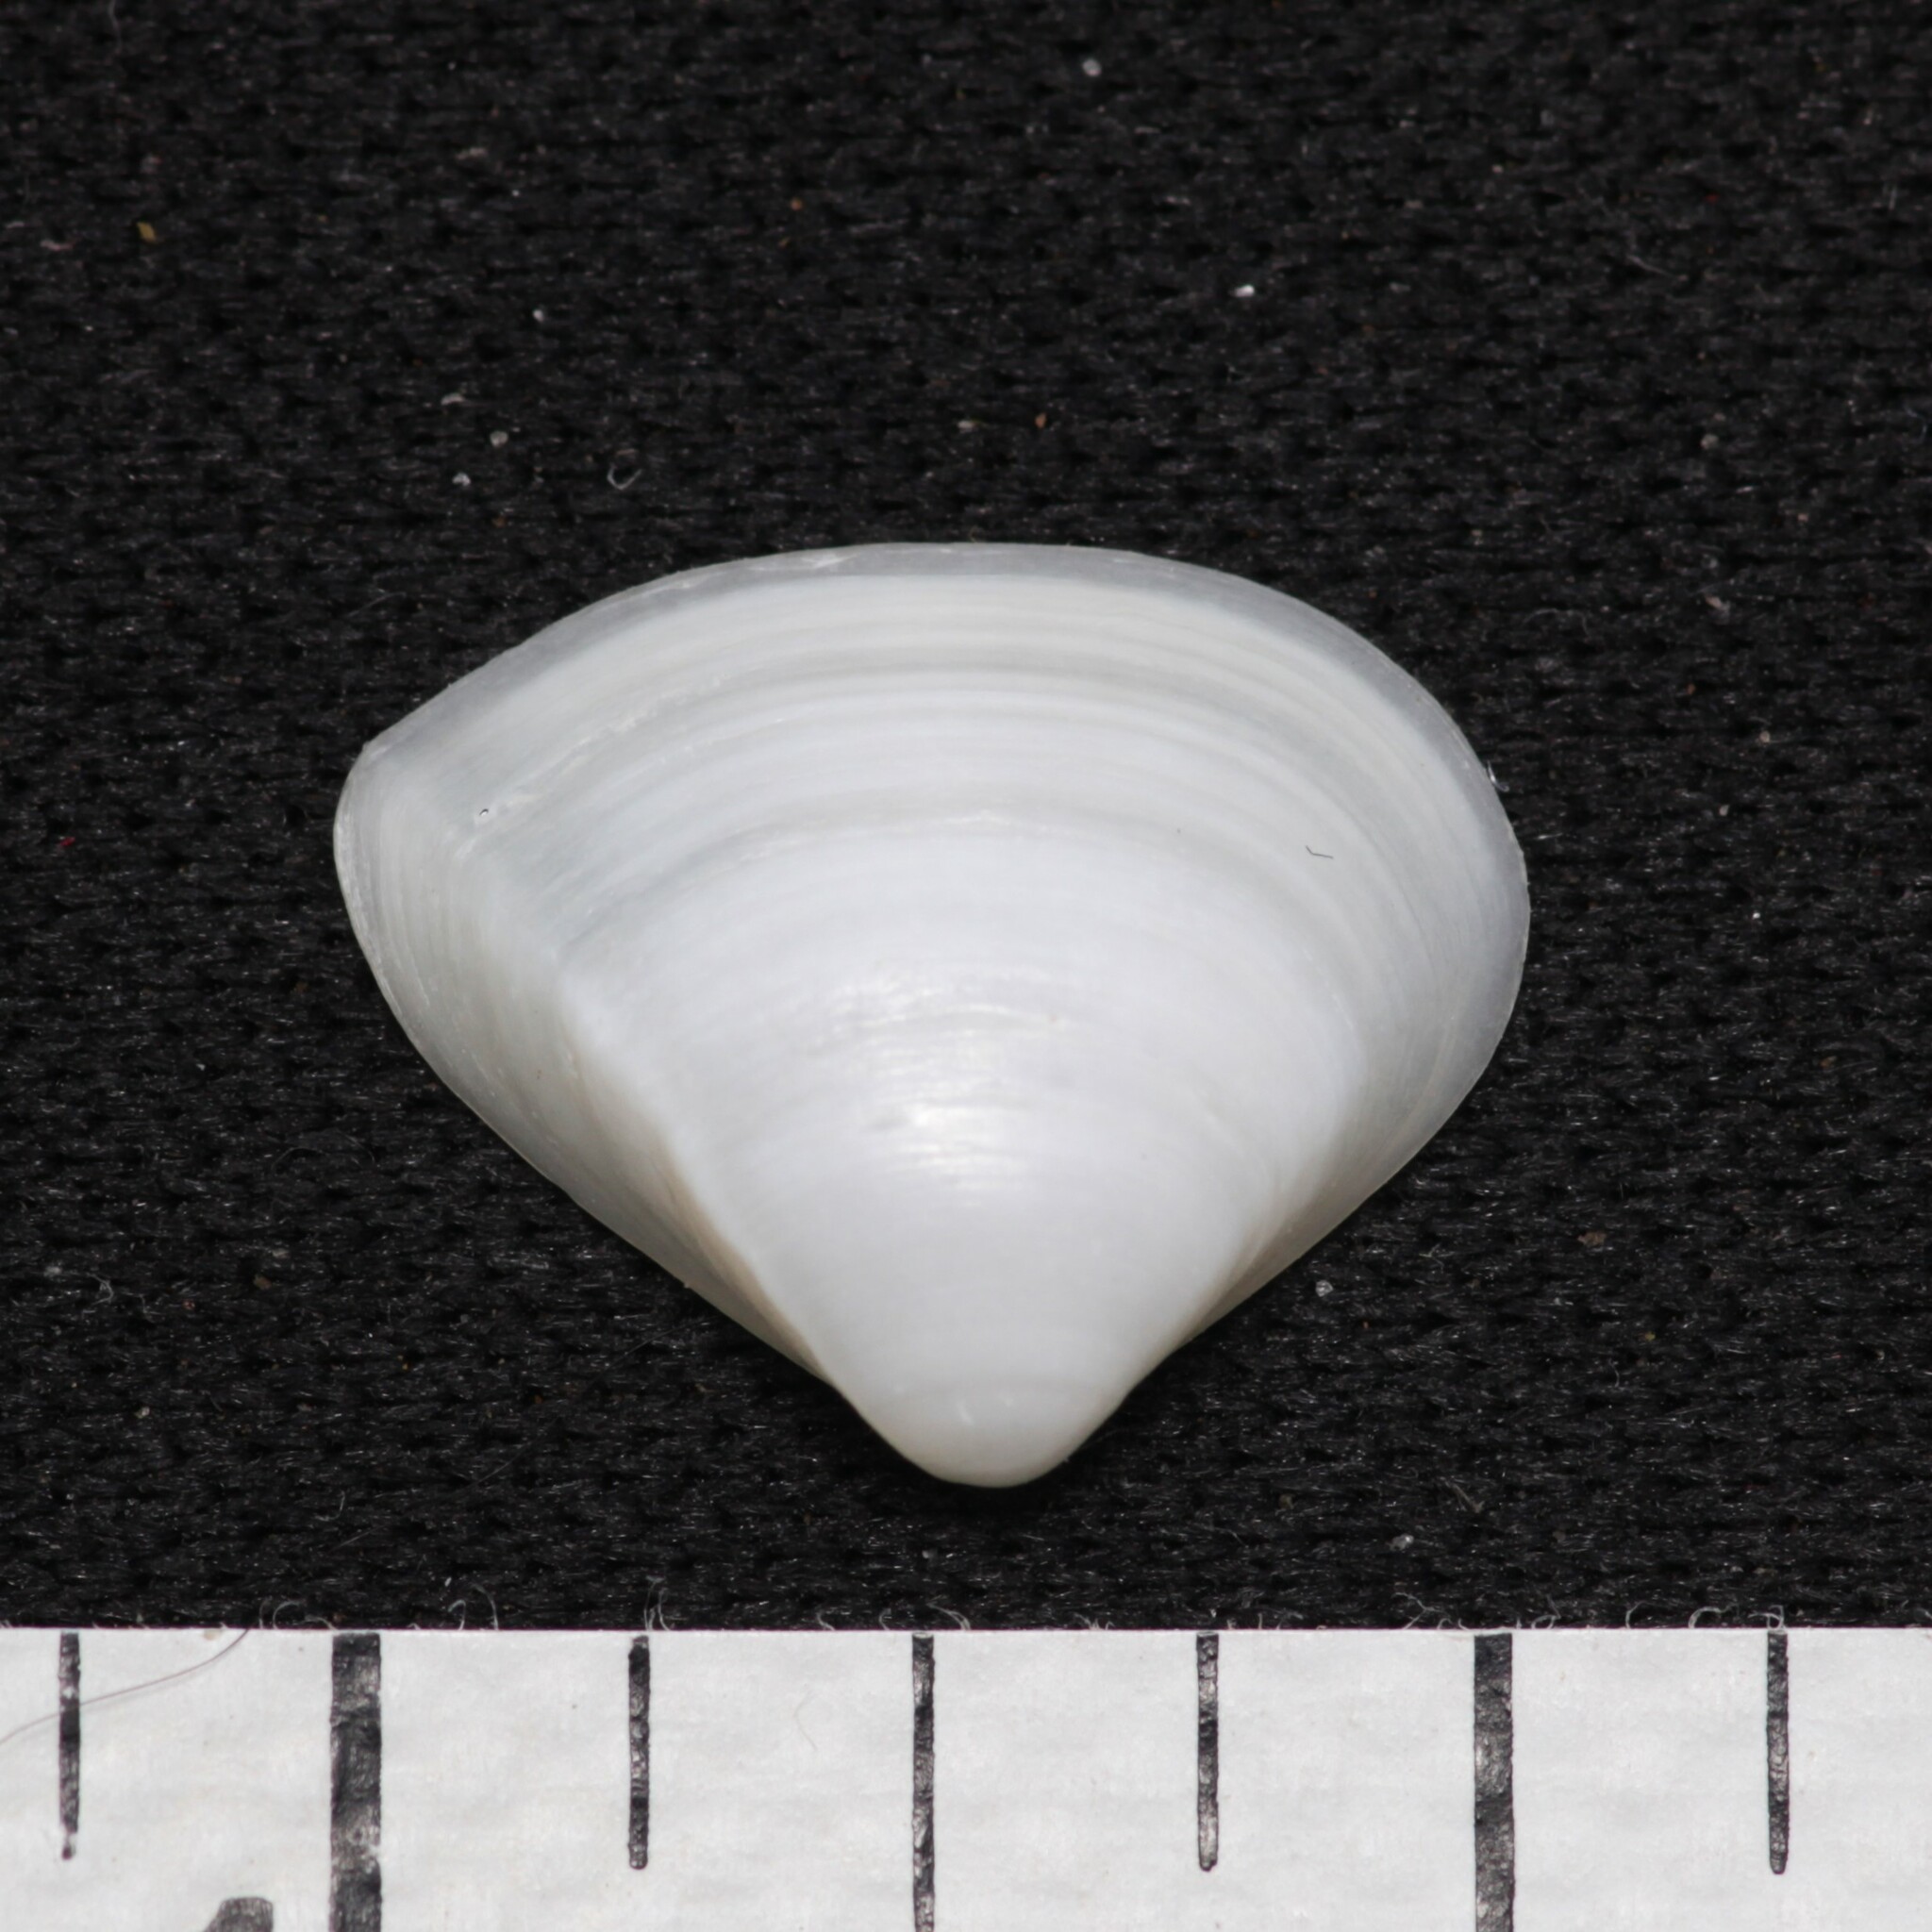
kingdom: Animalia
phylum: Mollusca
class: Bivalvia
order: Venerida
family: Mactridae
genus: Mulinia
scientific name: Mulinia lateralis
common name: Dwarf surfclam
